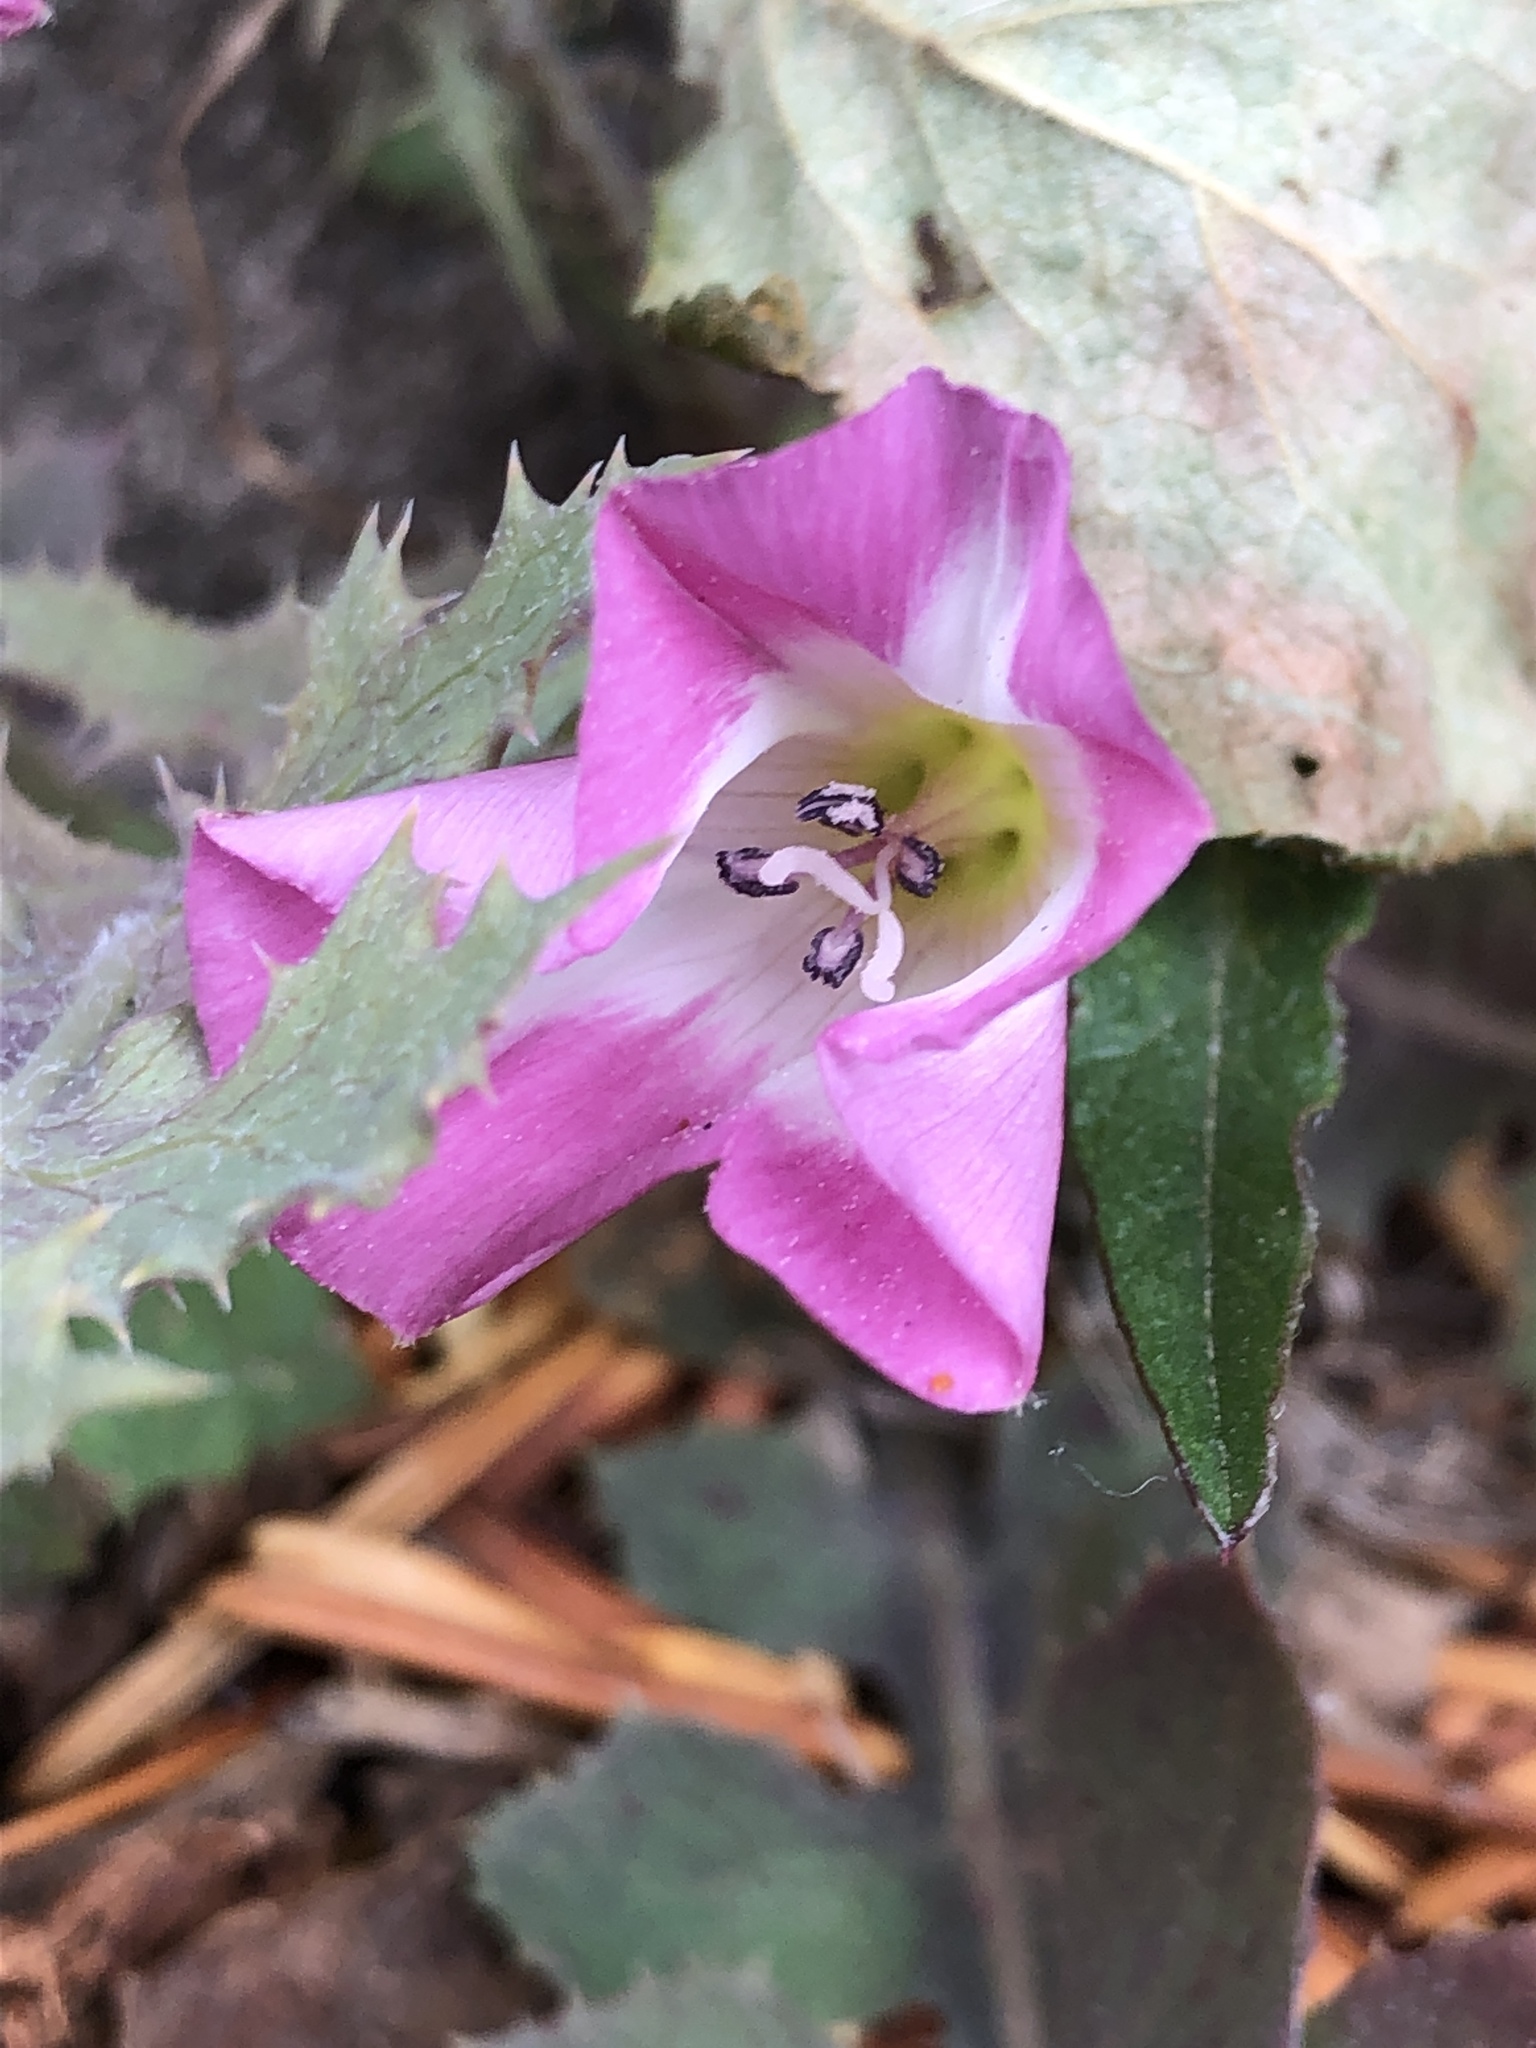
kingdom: Plantae
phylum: Tracheophyta
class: Magnoliopsida
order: Solanales
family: Convolvulaceae
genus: Convolvulus
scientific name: Convolvulus arvensis
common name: Field bindweed
